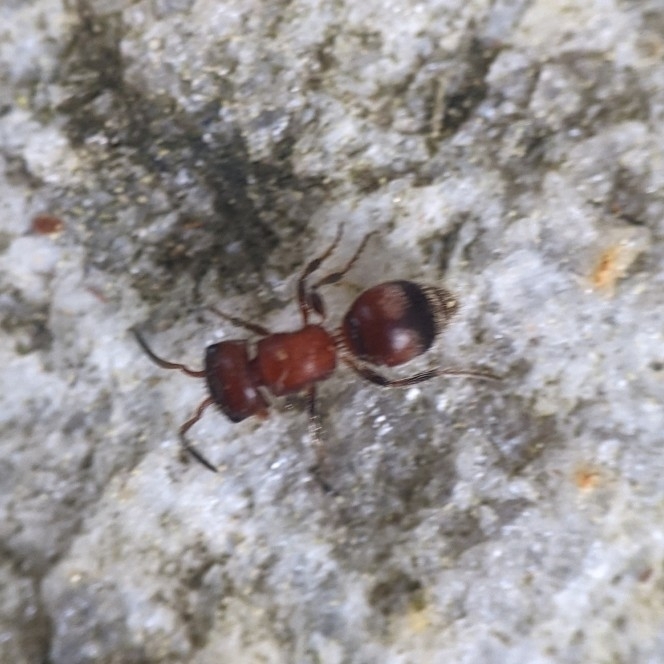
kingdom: Animalia
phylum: Arthropoda
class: Insecta
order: Hymenoptera
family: Mutillidae
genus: Pseudomethoca
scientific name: Pseudomethoca
